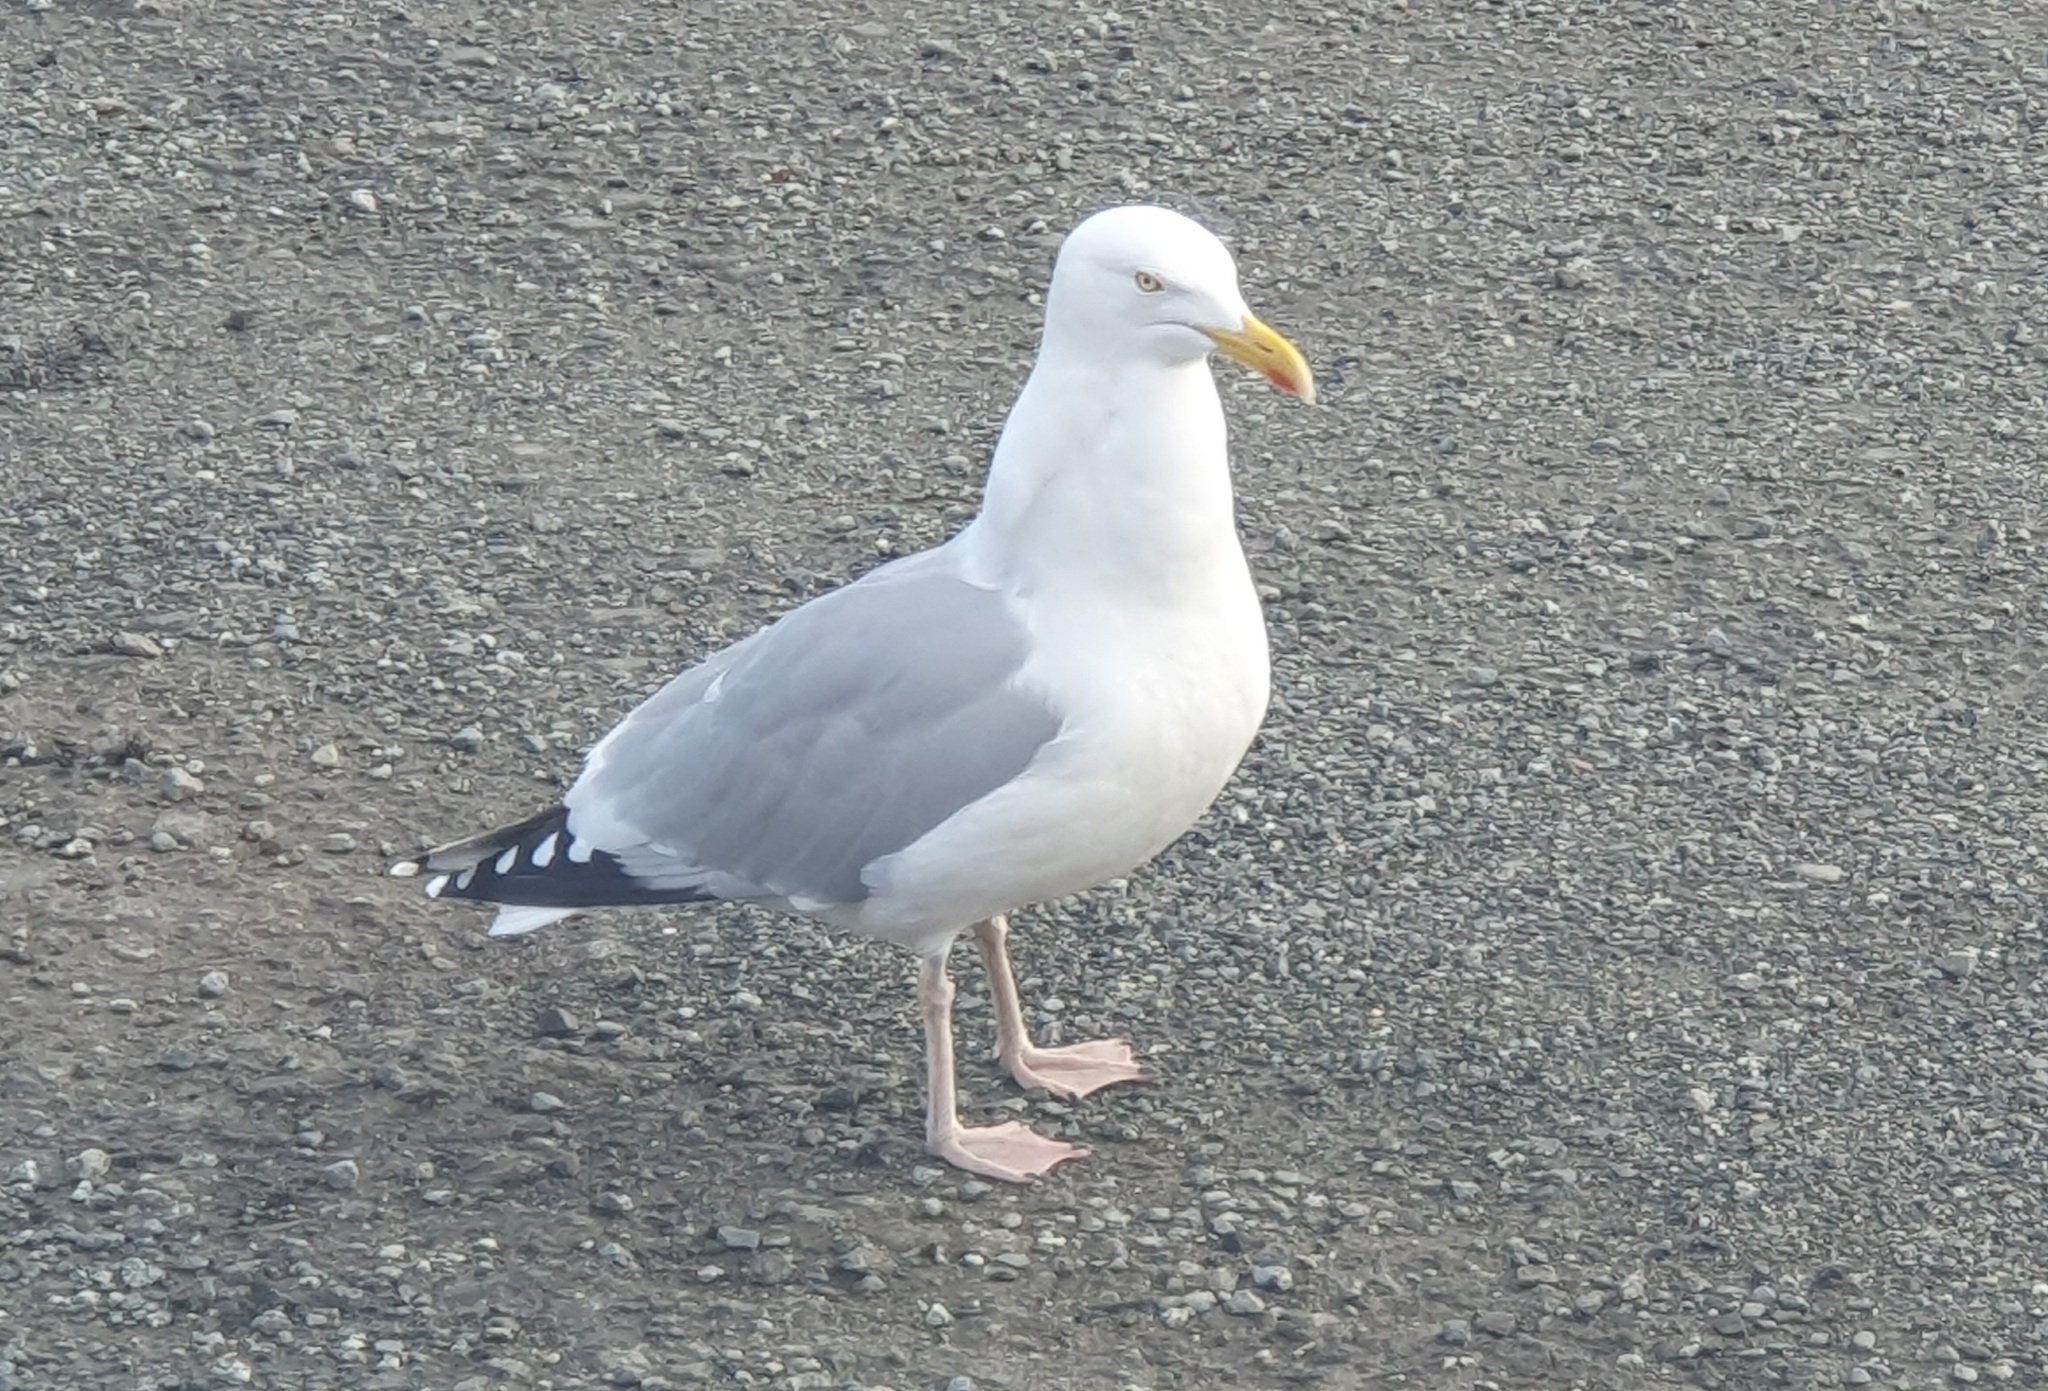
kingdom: Animalia
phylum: Chordata
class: Aves
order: Charadriiformes
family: Laridae
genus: Larus
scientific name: Larus argentatus
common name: Herring gull
